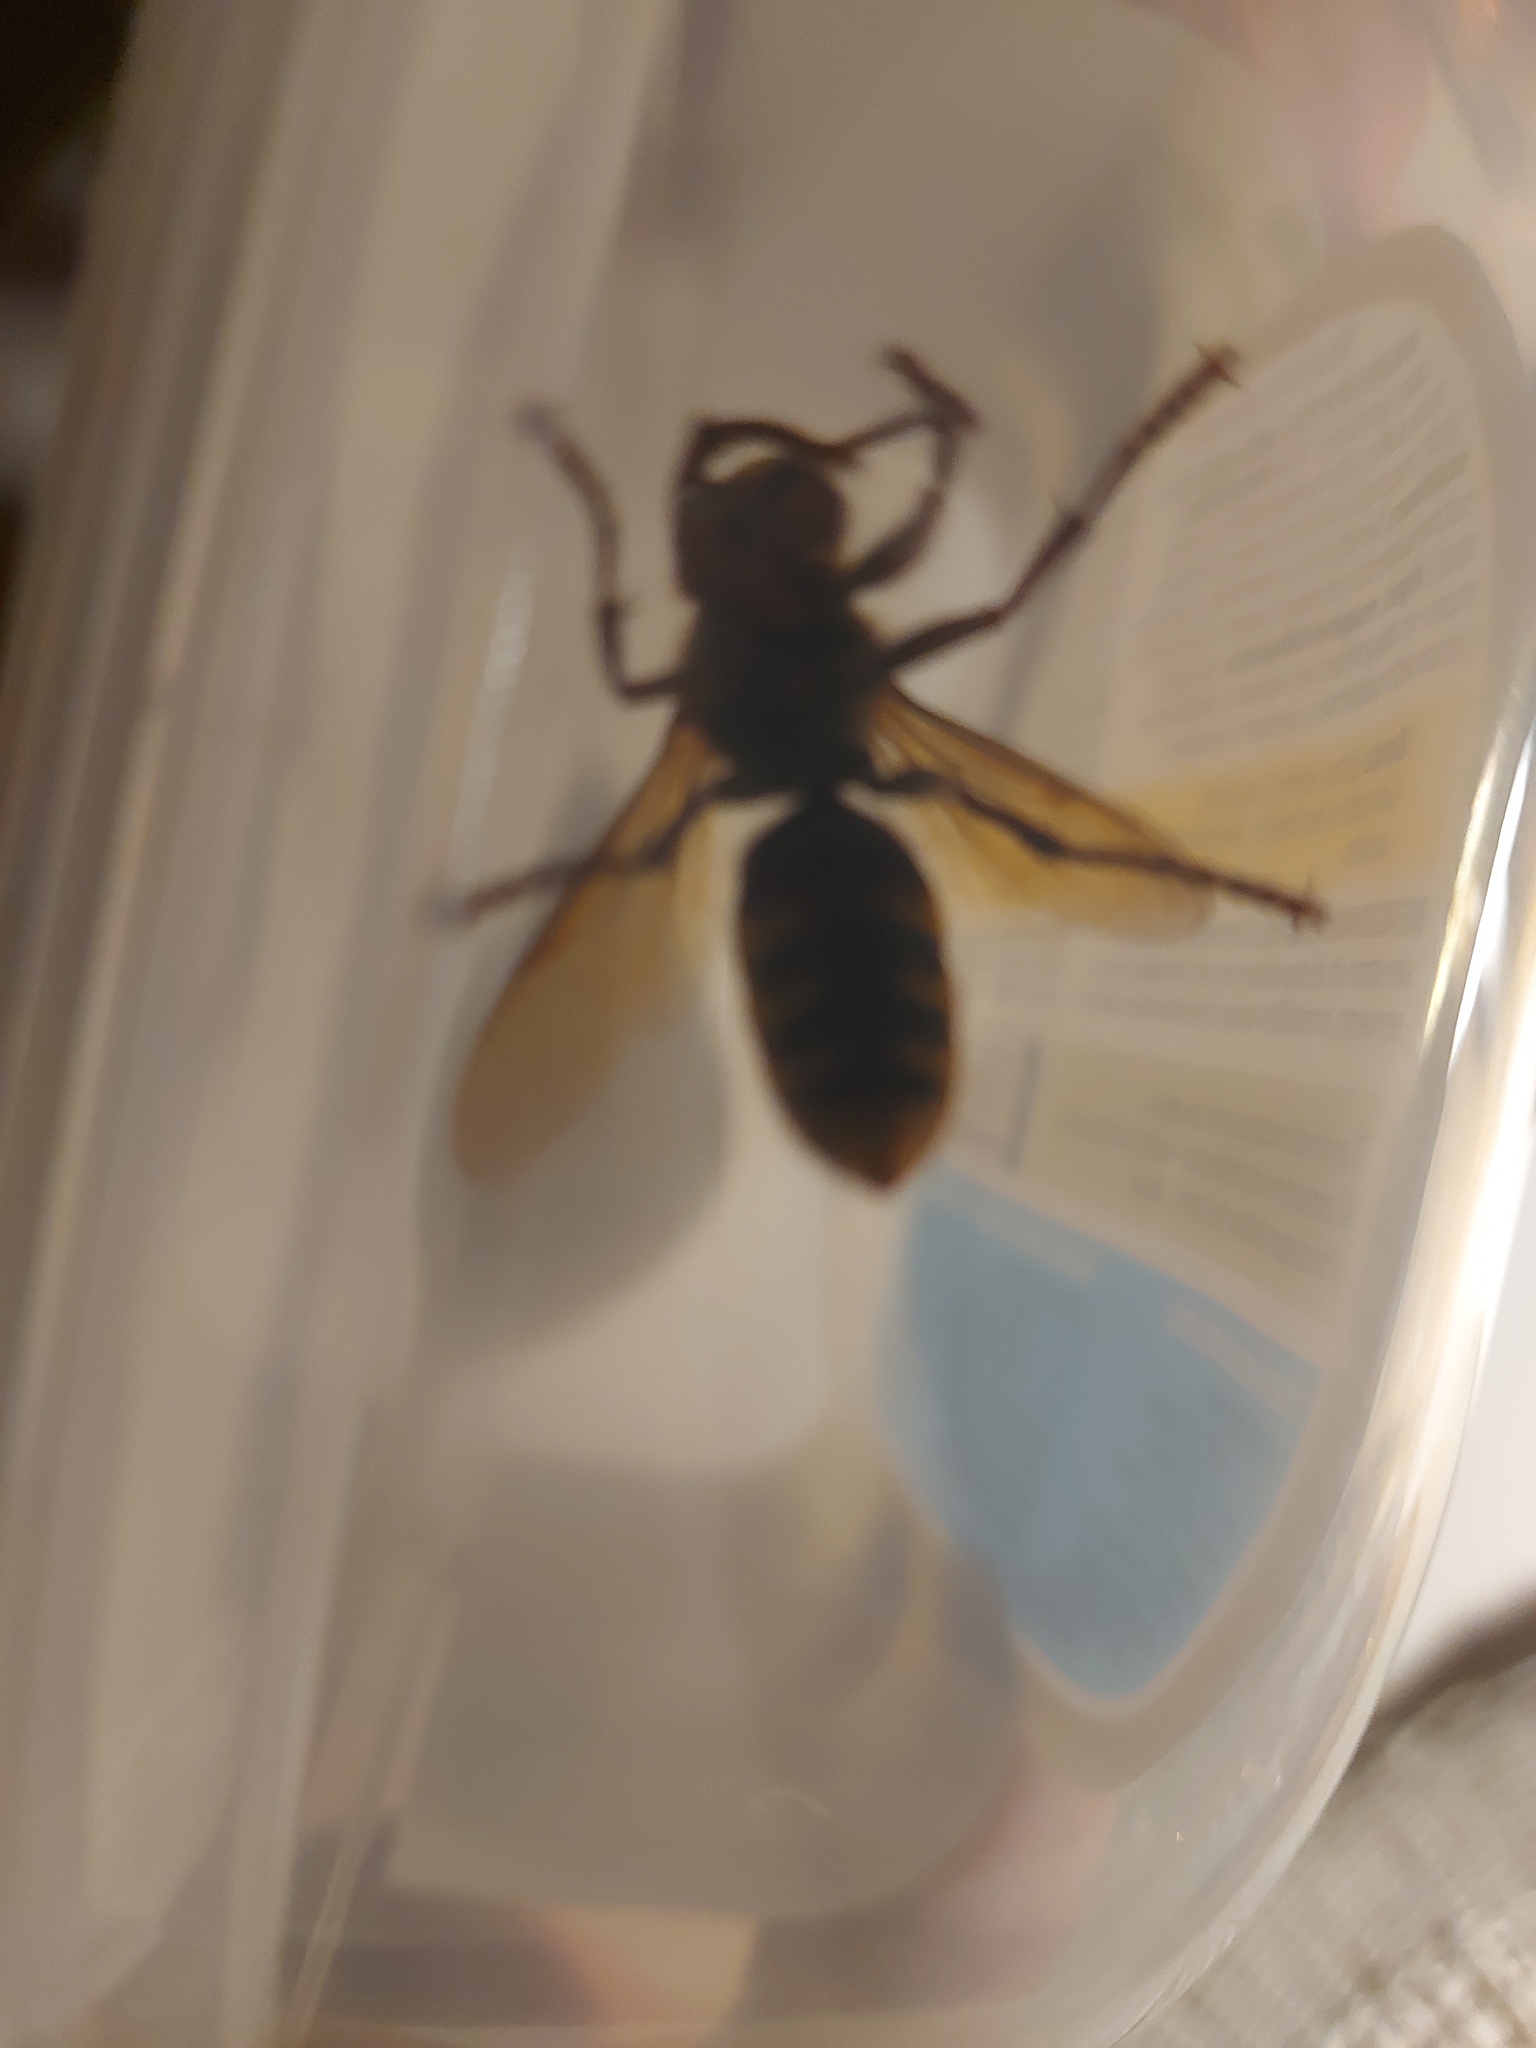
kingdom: Animalia
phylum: Arthropoda
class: Insecta
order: Hymenoptera
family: Vespidae
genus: Vespa
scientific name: Vespa crabro
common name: Hornet
